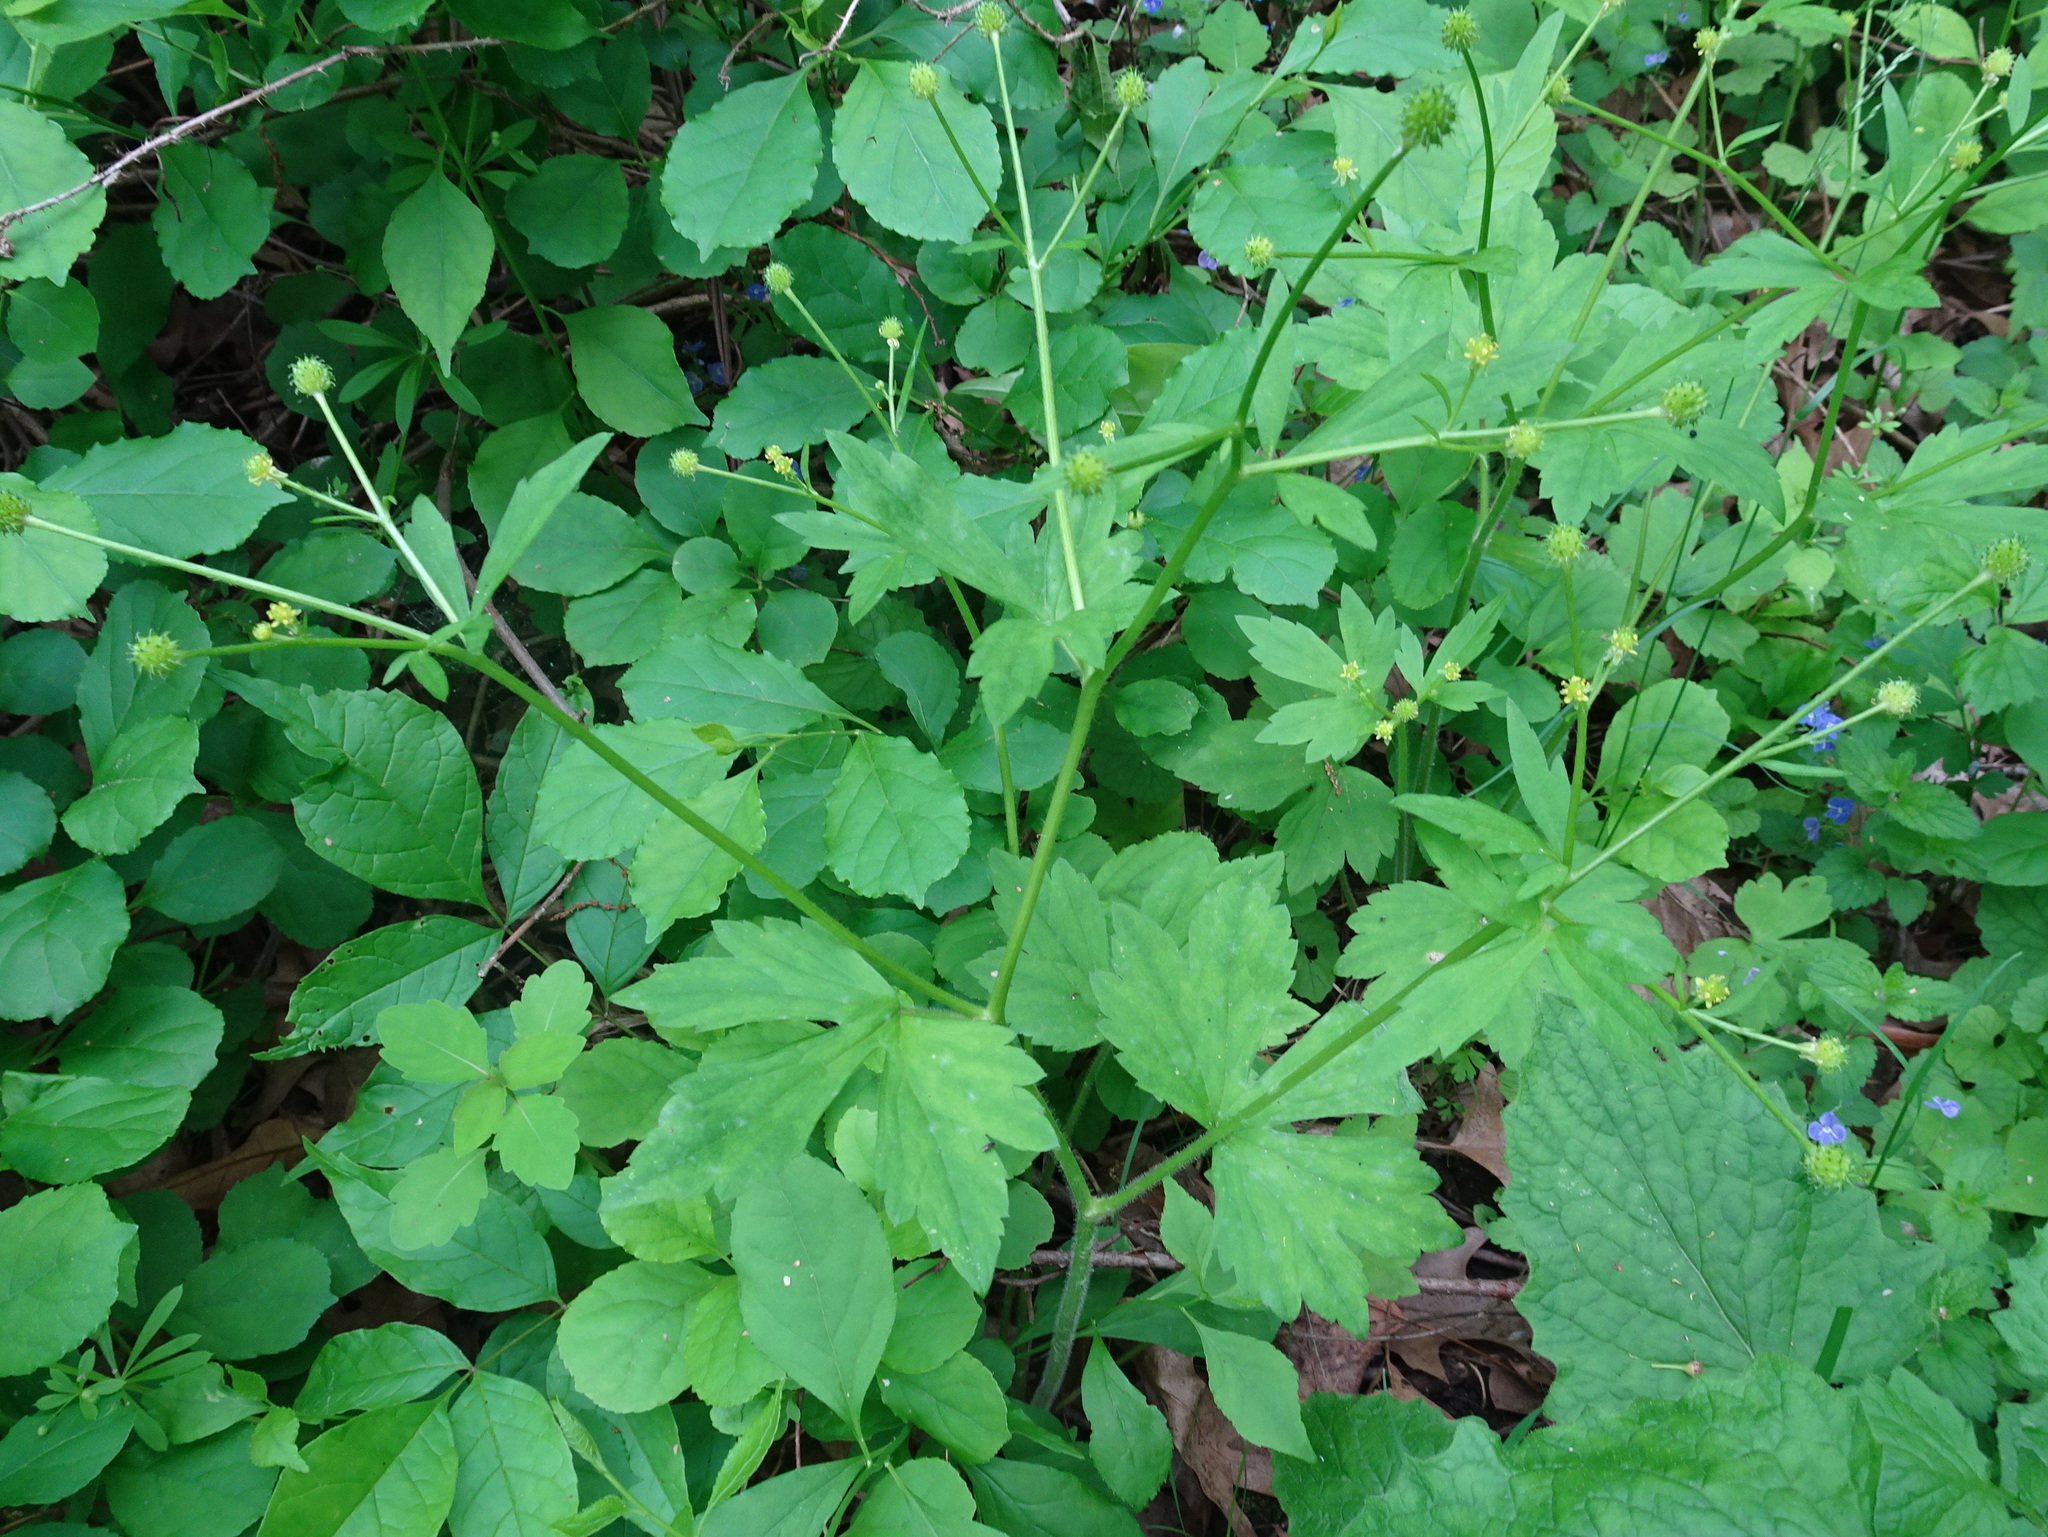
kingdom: Plantae
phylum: Tracheophyta
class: Magnoliopsida
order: Ranunculales
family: Ranunculaceae
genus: Ranunculus
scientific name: Ranunculus recurvatus
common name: Blisterwort
